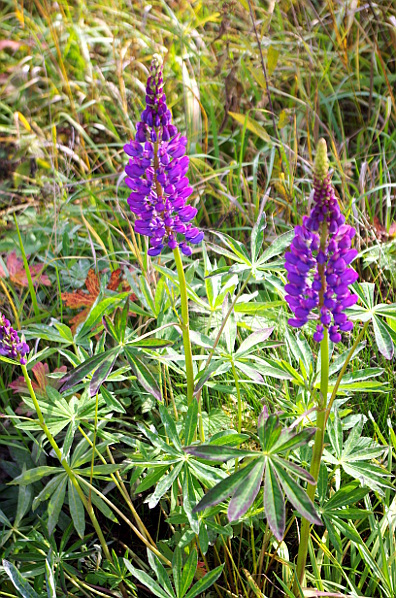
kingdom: Plantae
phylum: Tracheophyta
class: Magnoliopsida
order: Fabales
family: Fabaceae
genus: Lupinus
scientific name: Lupinus polyphyllus
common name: Garden lupin
